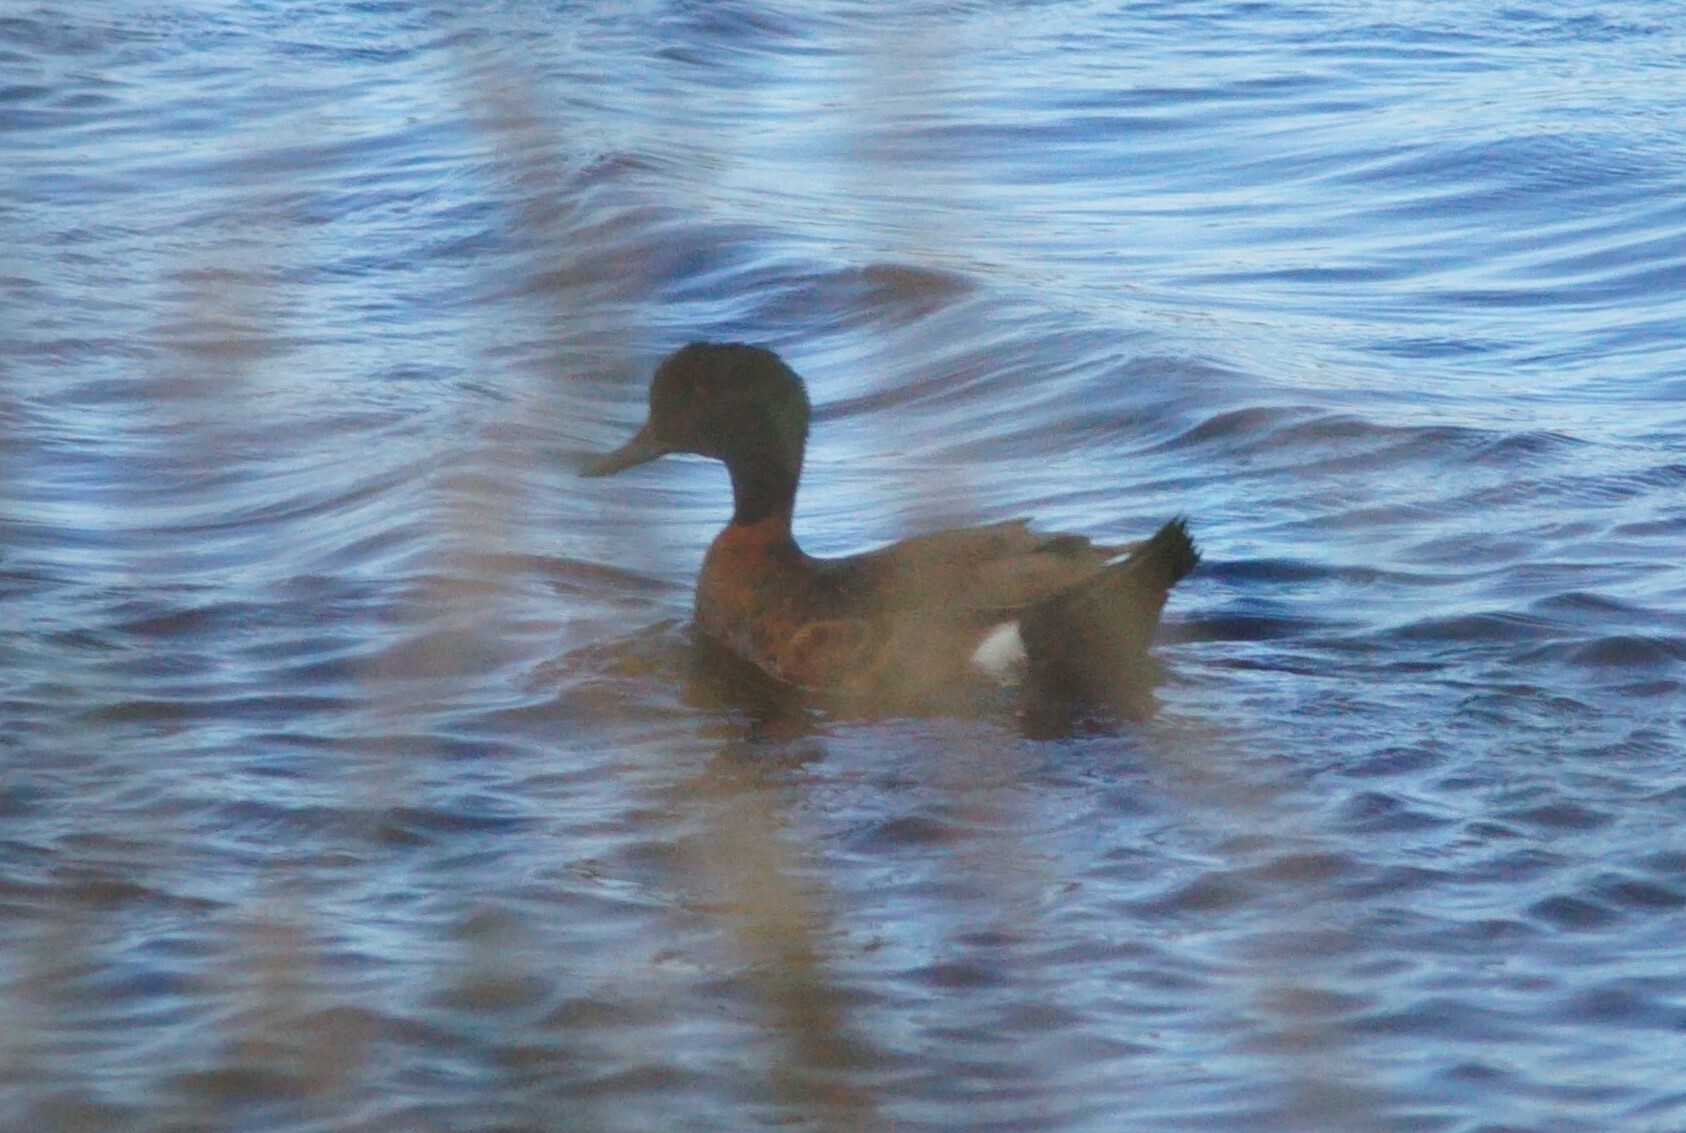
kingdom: Animalia
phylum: Chordata
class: Aves
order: Anseriformes
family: Anatidae
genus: Anas
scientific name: Anas castanea
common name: Chestnut teal
